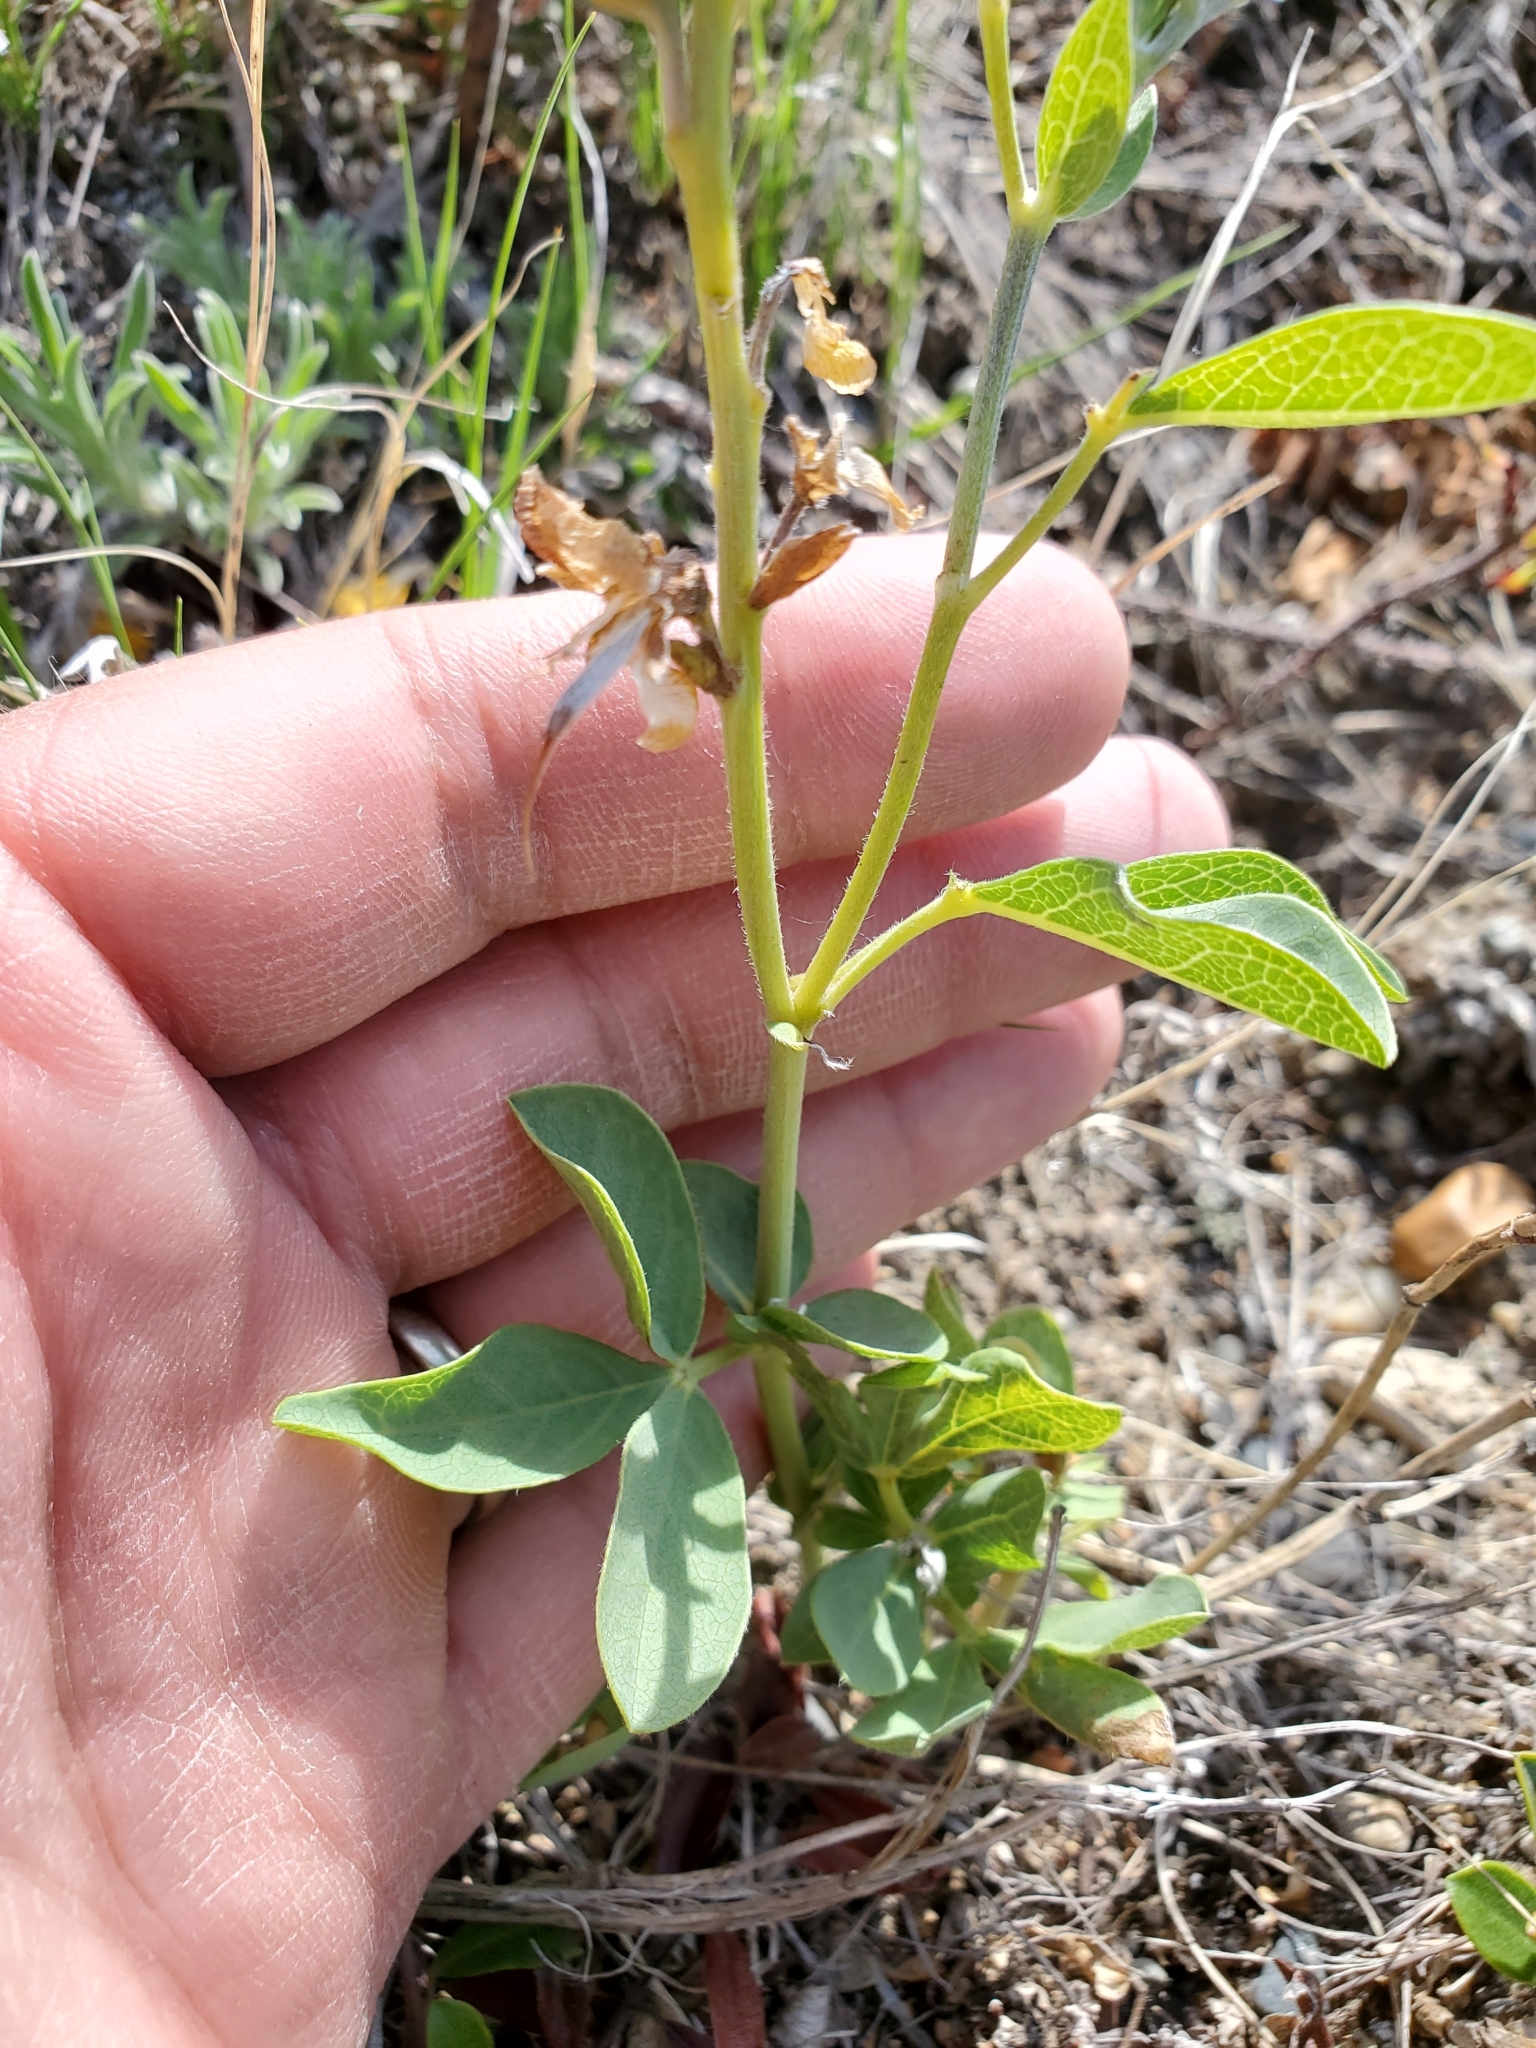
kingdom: Plantae
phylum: Tracheophyta
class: Magnoliopsida
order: Fabales
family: Fabaceae
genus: Thermopsis
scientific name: Thermopsis rhombifolia
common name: Circle-pod-pea
